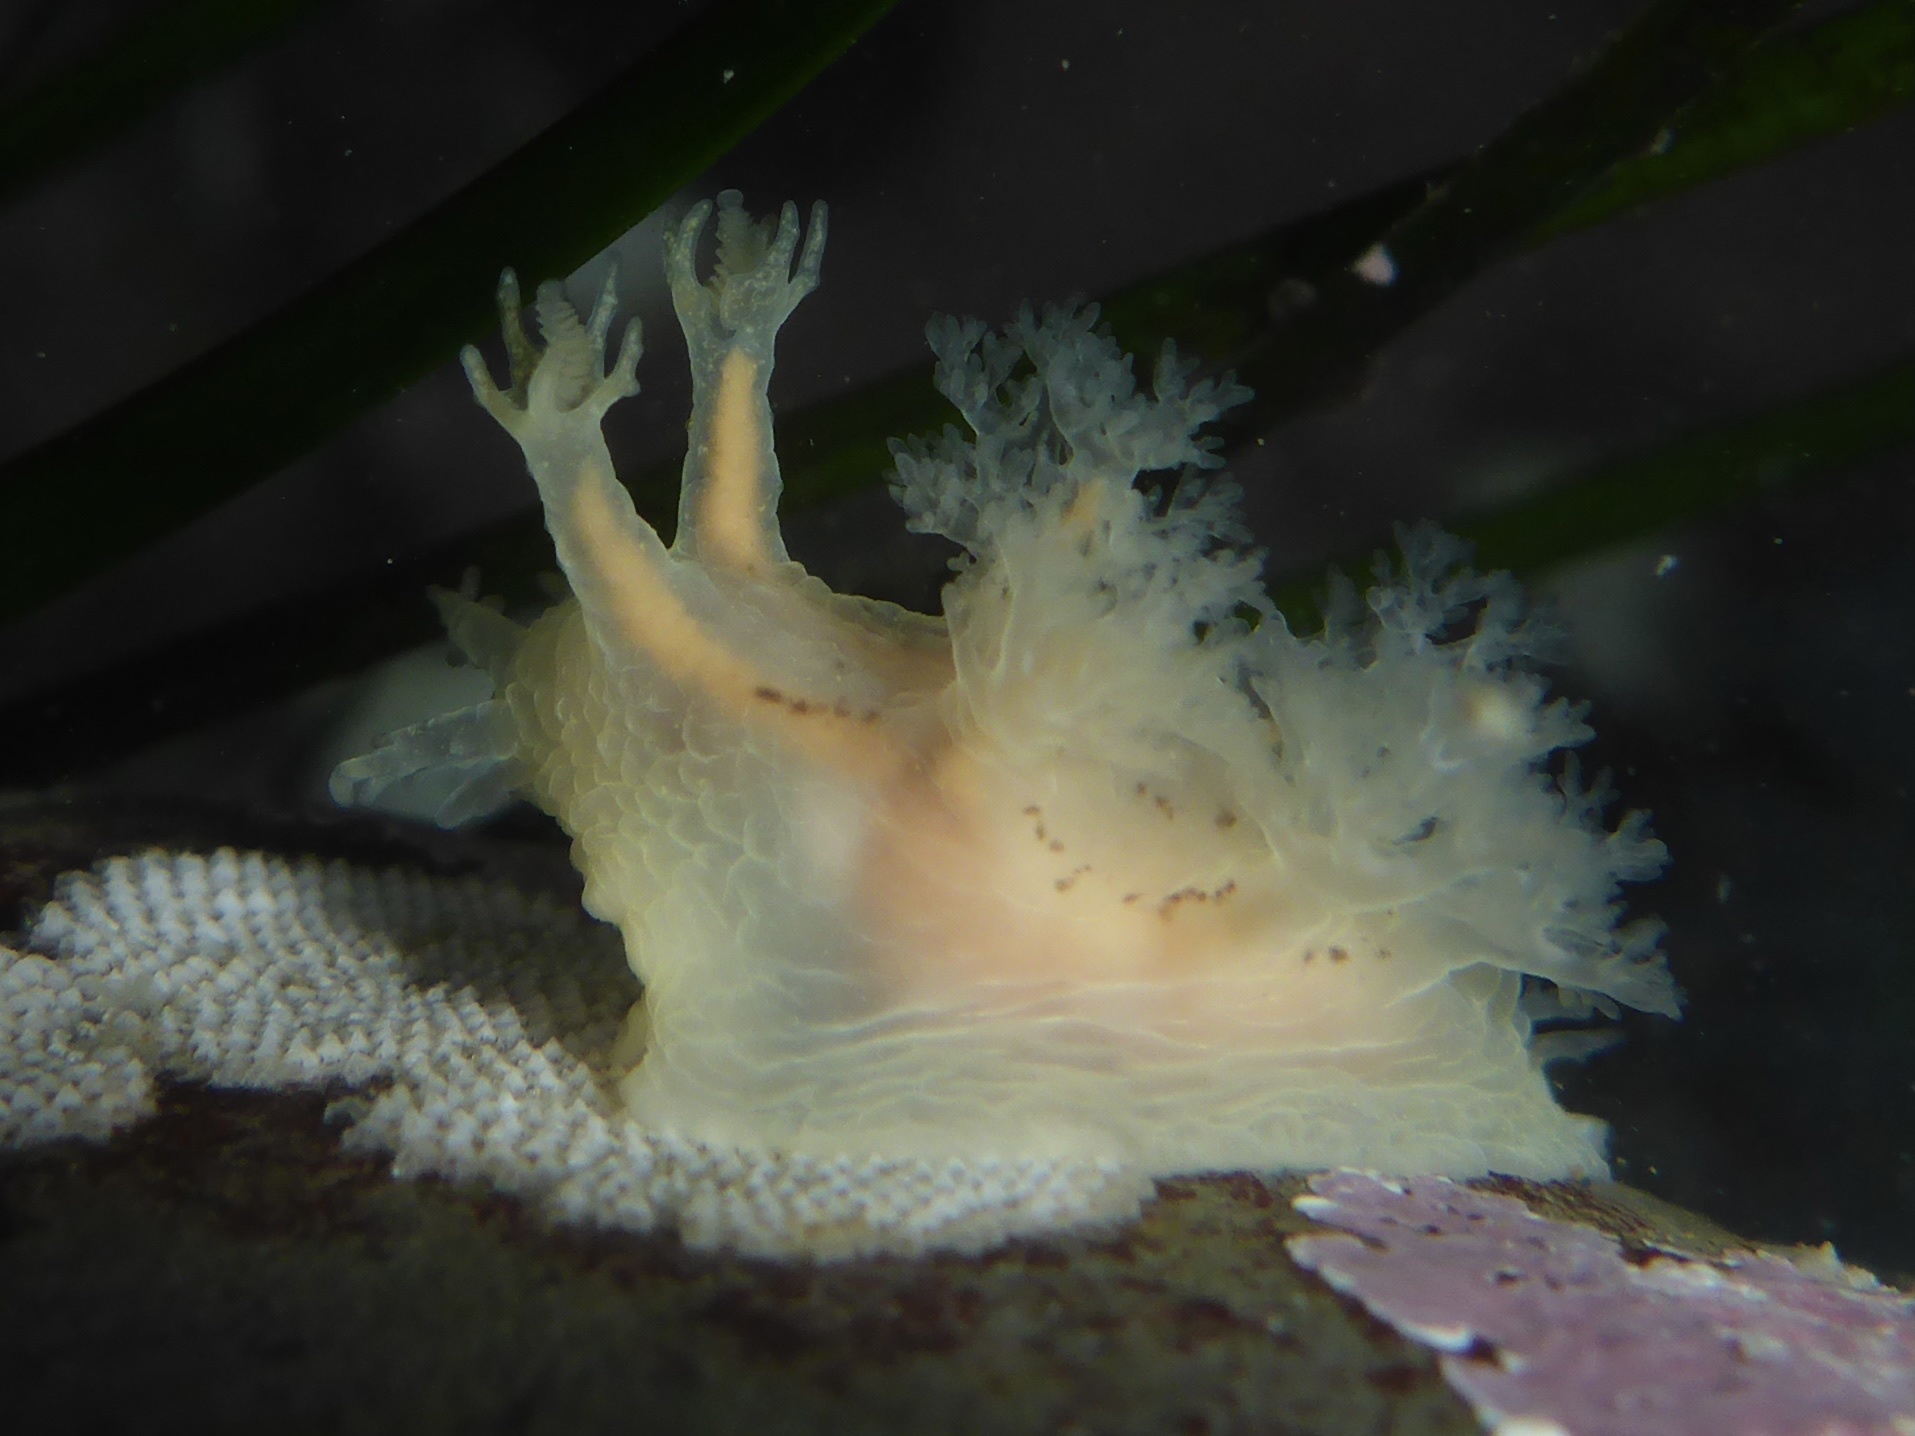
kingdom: Animalia
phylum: Mollusca
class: Gastropoda
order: Nudibranchia
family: Dendronotidae
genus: Dendronotus
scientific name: Dendronotus subramosus
